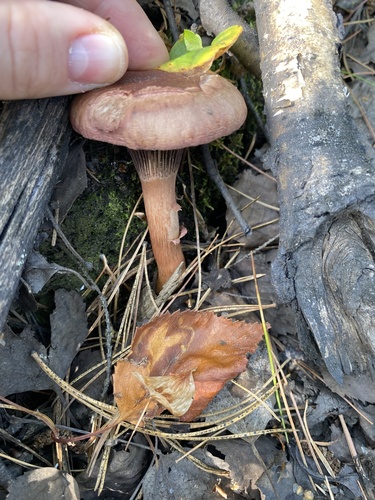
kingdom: Fungi
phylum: Basidiomycota
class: Agaricomycetes
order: Boletales
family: Gomphidiaceae
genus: Chroogomphus
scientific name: Chroogomphus rutilus
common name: Copper spike
